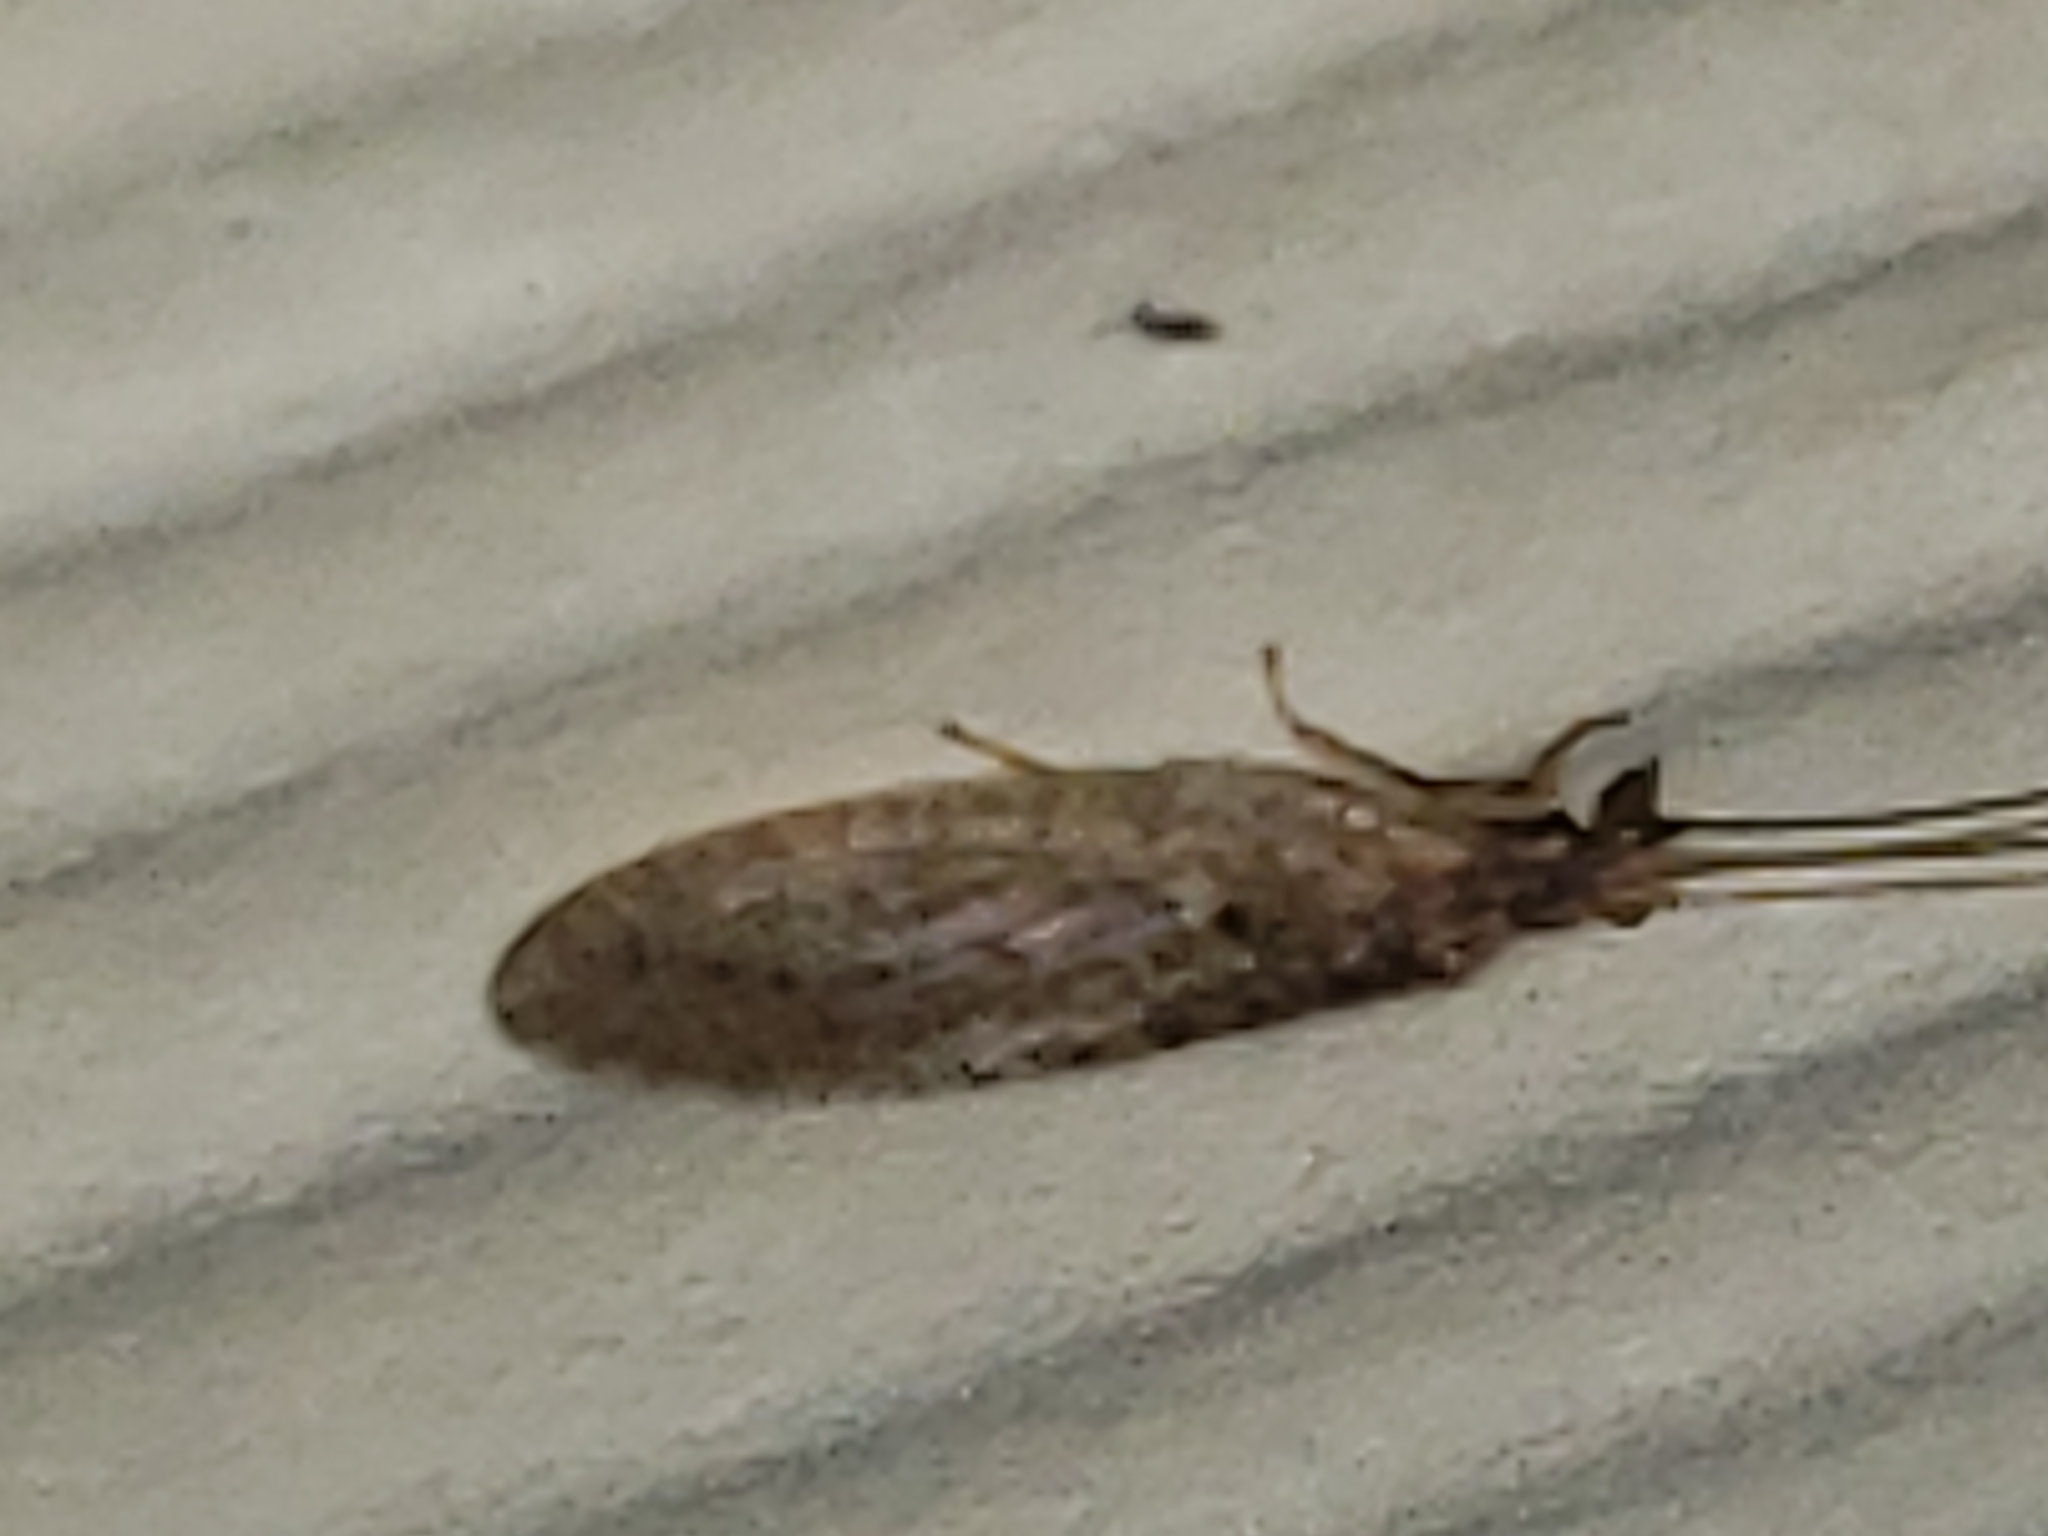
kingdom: Animalia
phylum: Arthropoda
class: Insecta
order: Neuroptera
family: Hemerobiidae
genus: Micromus
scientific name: Micromus subanticus
